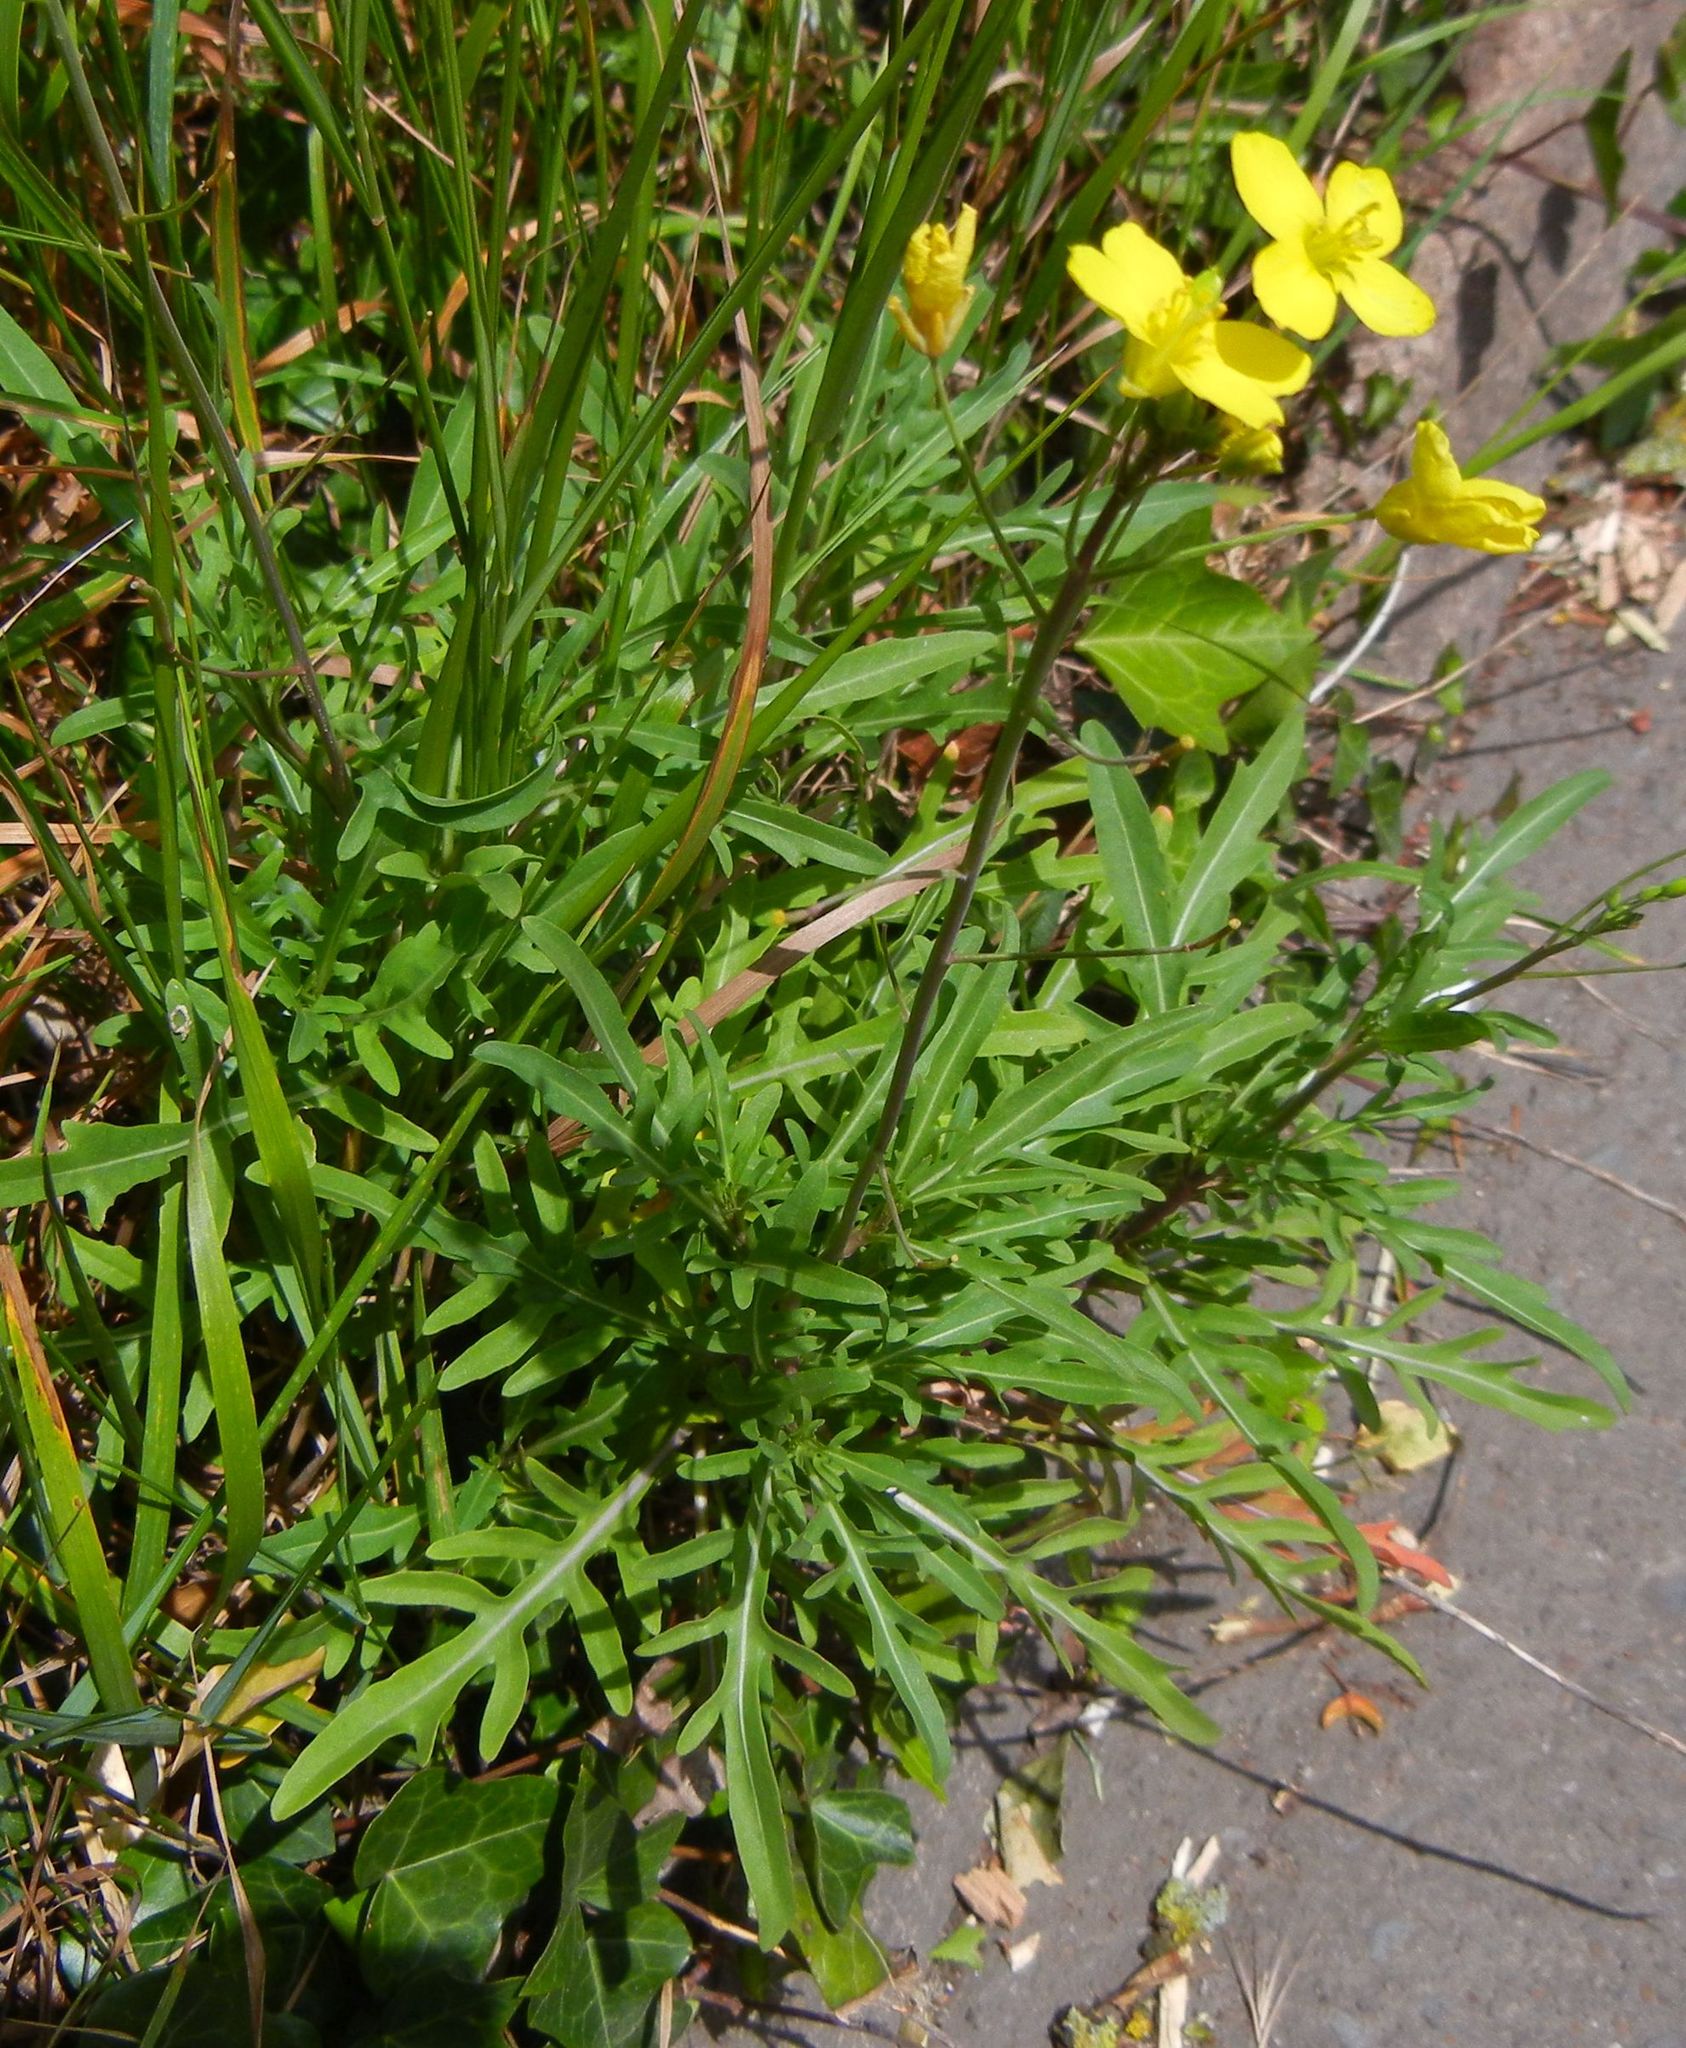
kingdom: Plantae
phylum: Tracheophyta
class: Magnoliopsida
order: Brassicales
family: Brassicaceae
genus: Diplotaxis
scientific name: Diplotaxis tenuifolia
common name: Perennial wall-rocket
